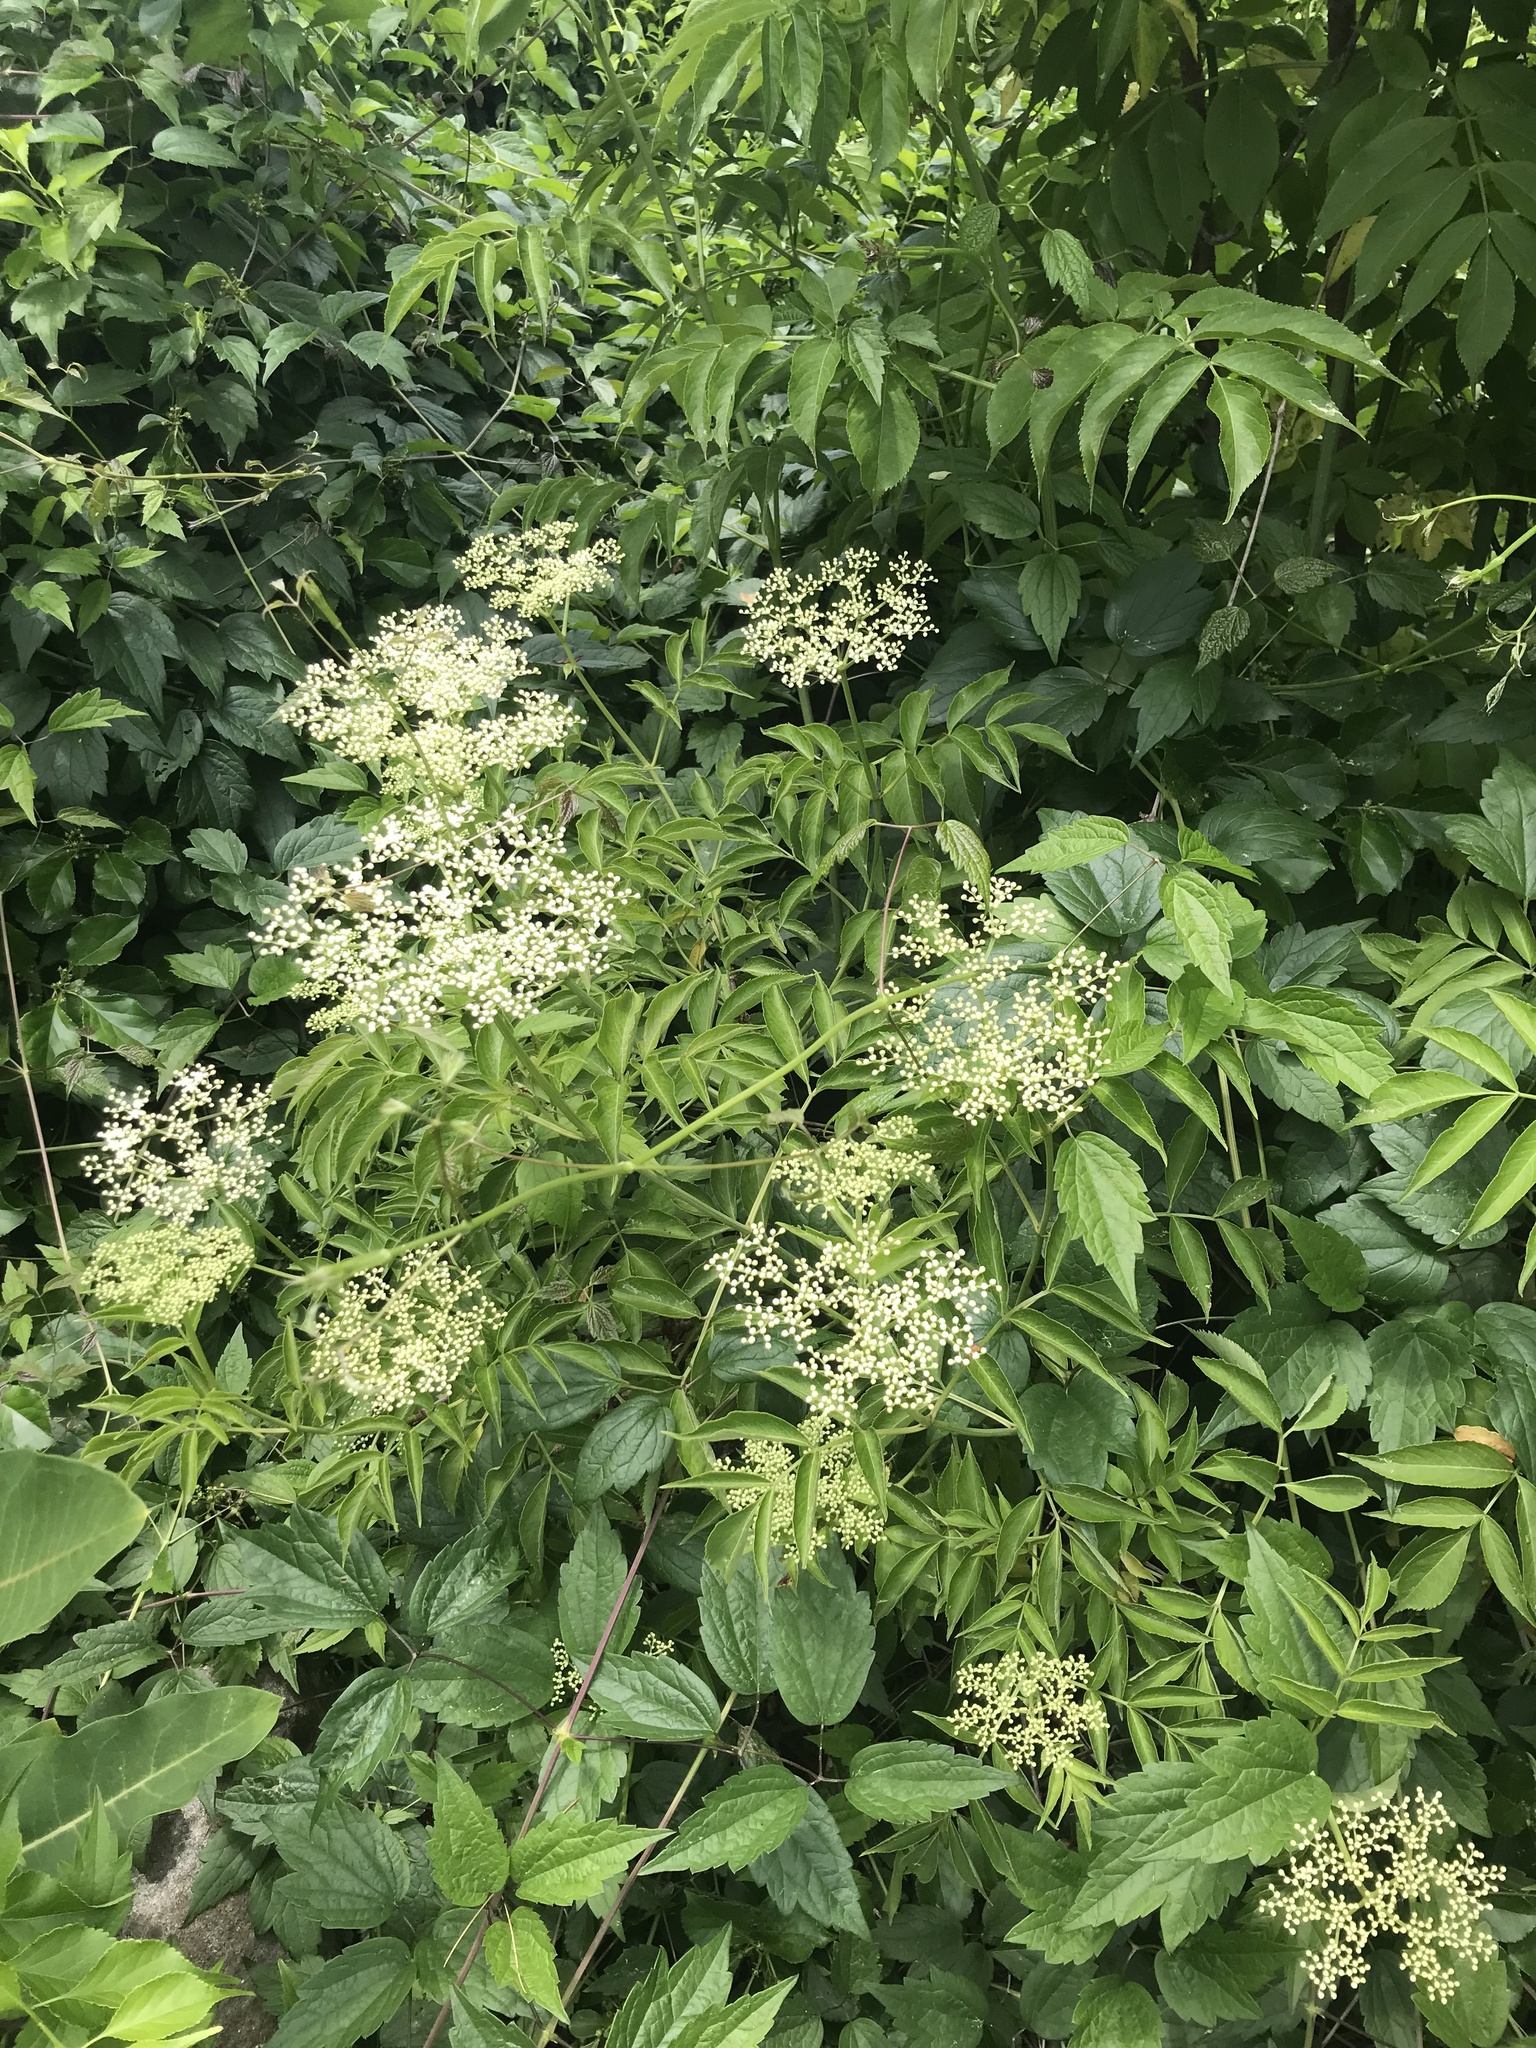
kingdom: Plantae
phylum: Tracheophyta
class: Magnoliopsida
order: Dipsacales
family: Viburnaceae
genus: Sambucus
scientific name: Sambucus canadensis
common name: American elder
